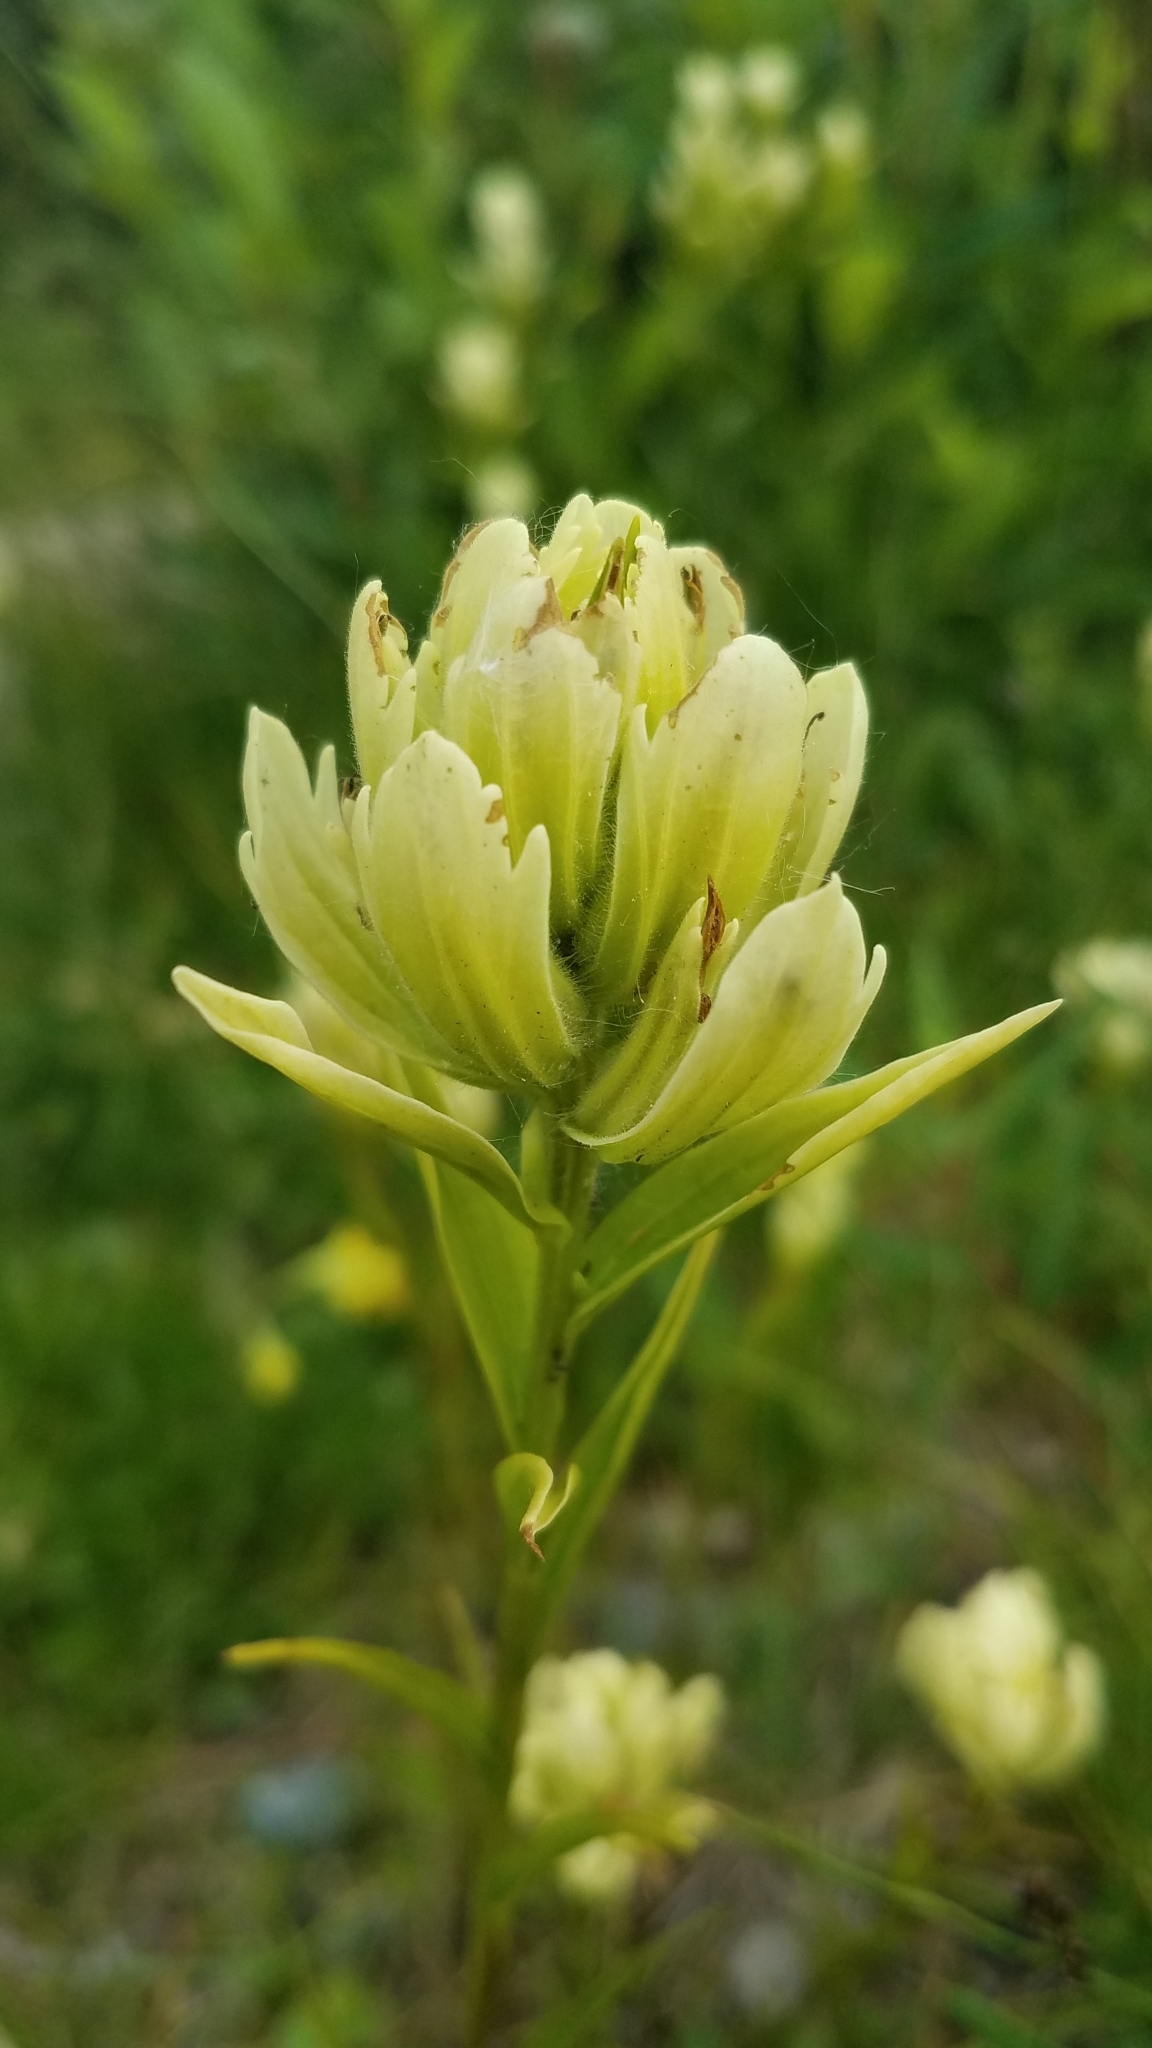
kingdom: Plantae
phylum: Tracheophyta
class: Magnoliopsida
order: Lamiales
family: Orobanchaceae
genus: Castilleja
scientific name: Castilleja occidentalis
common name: Western paintbrush
